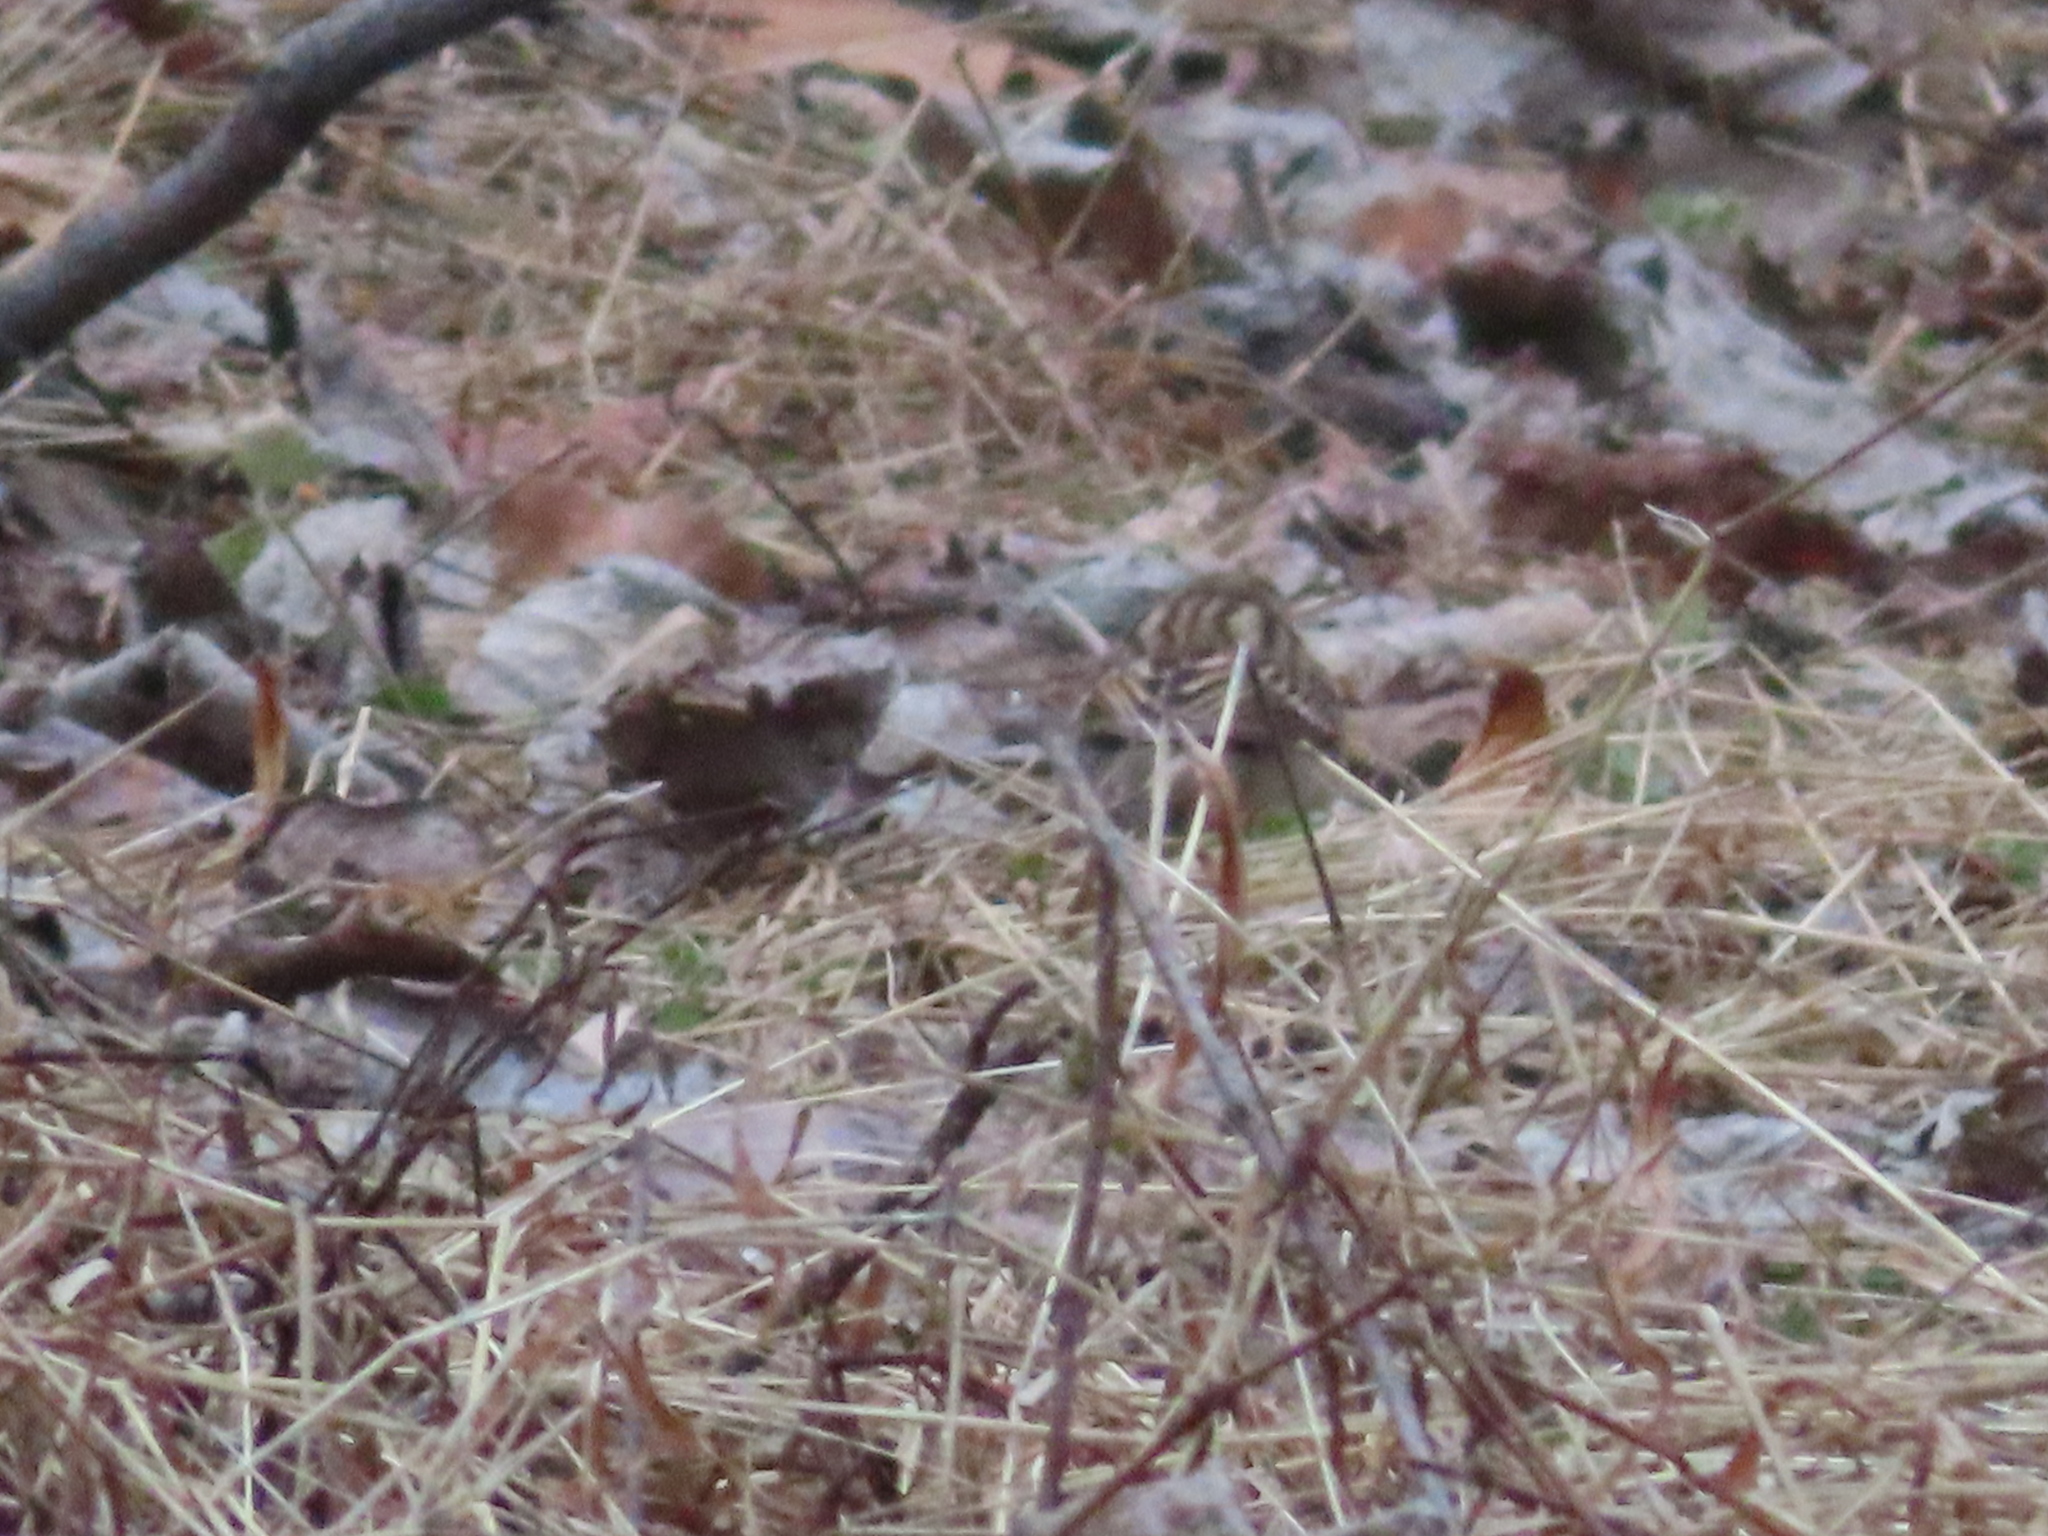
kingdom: Animalia
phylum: Chordata
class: Aves
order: Passeriformes
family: Passerellidae
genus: Spizella
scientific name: Spizella pusilla
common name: Field sparrow
